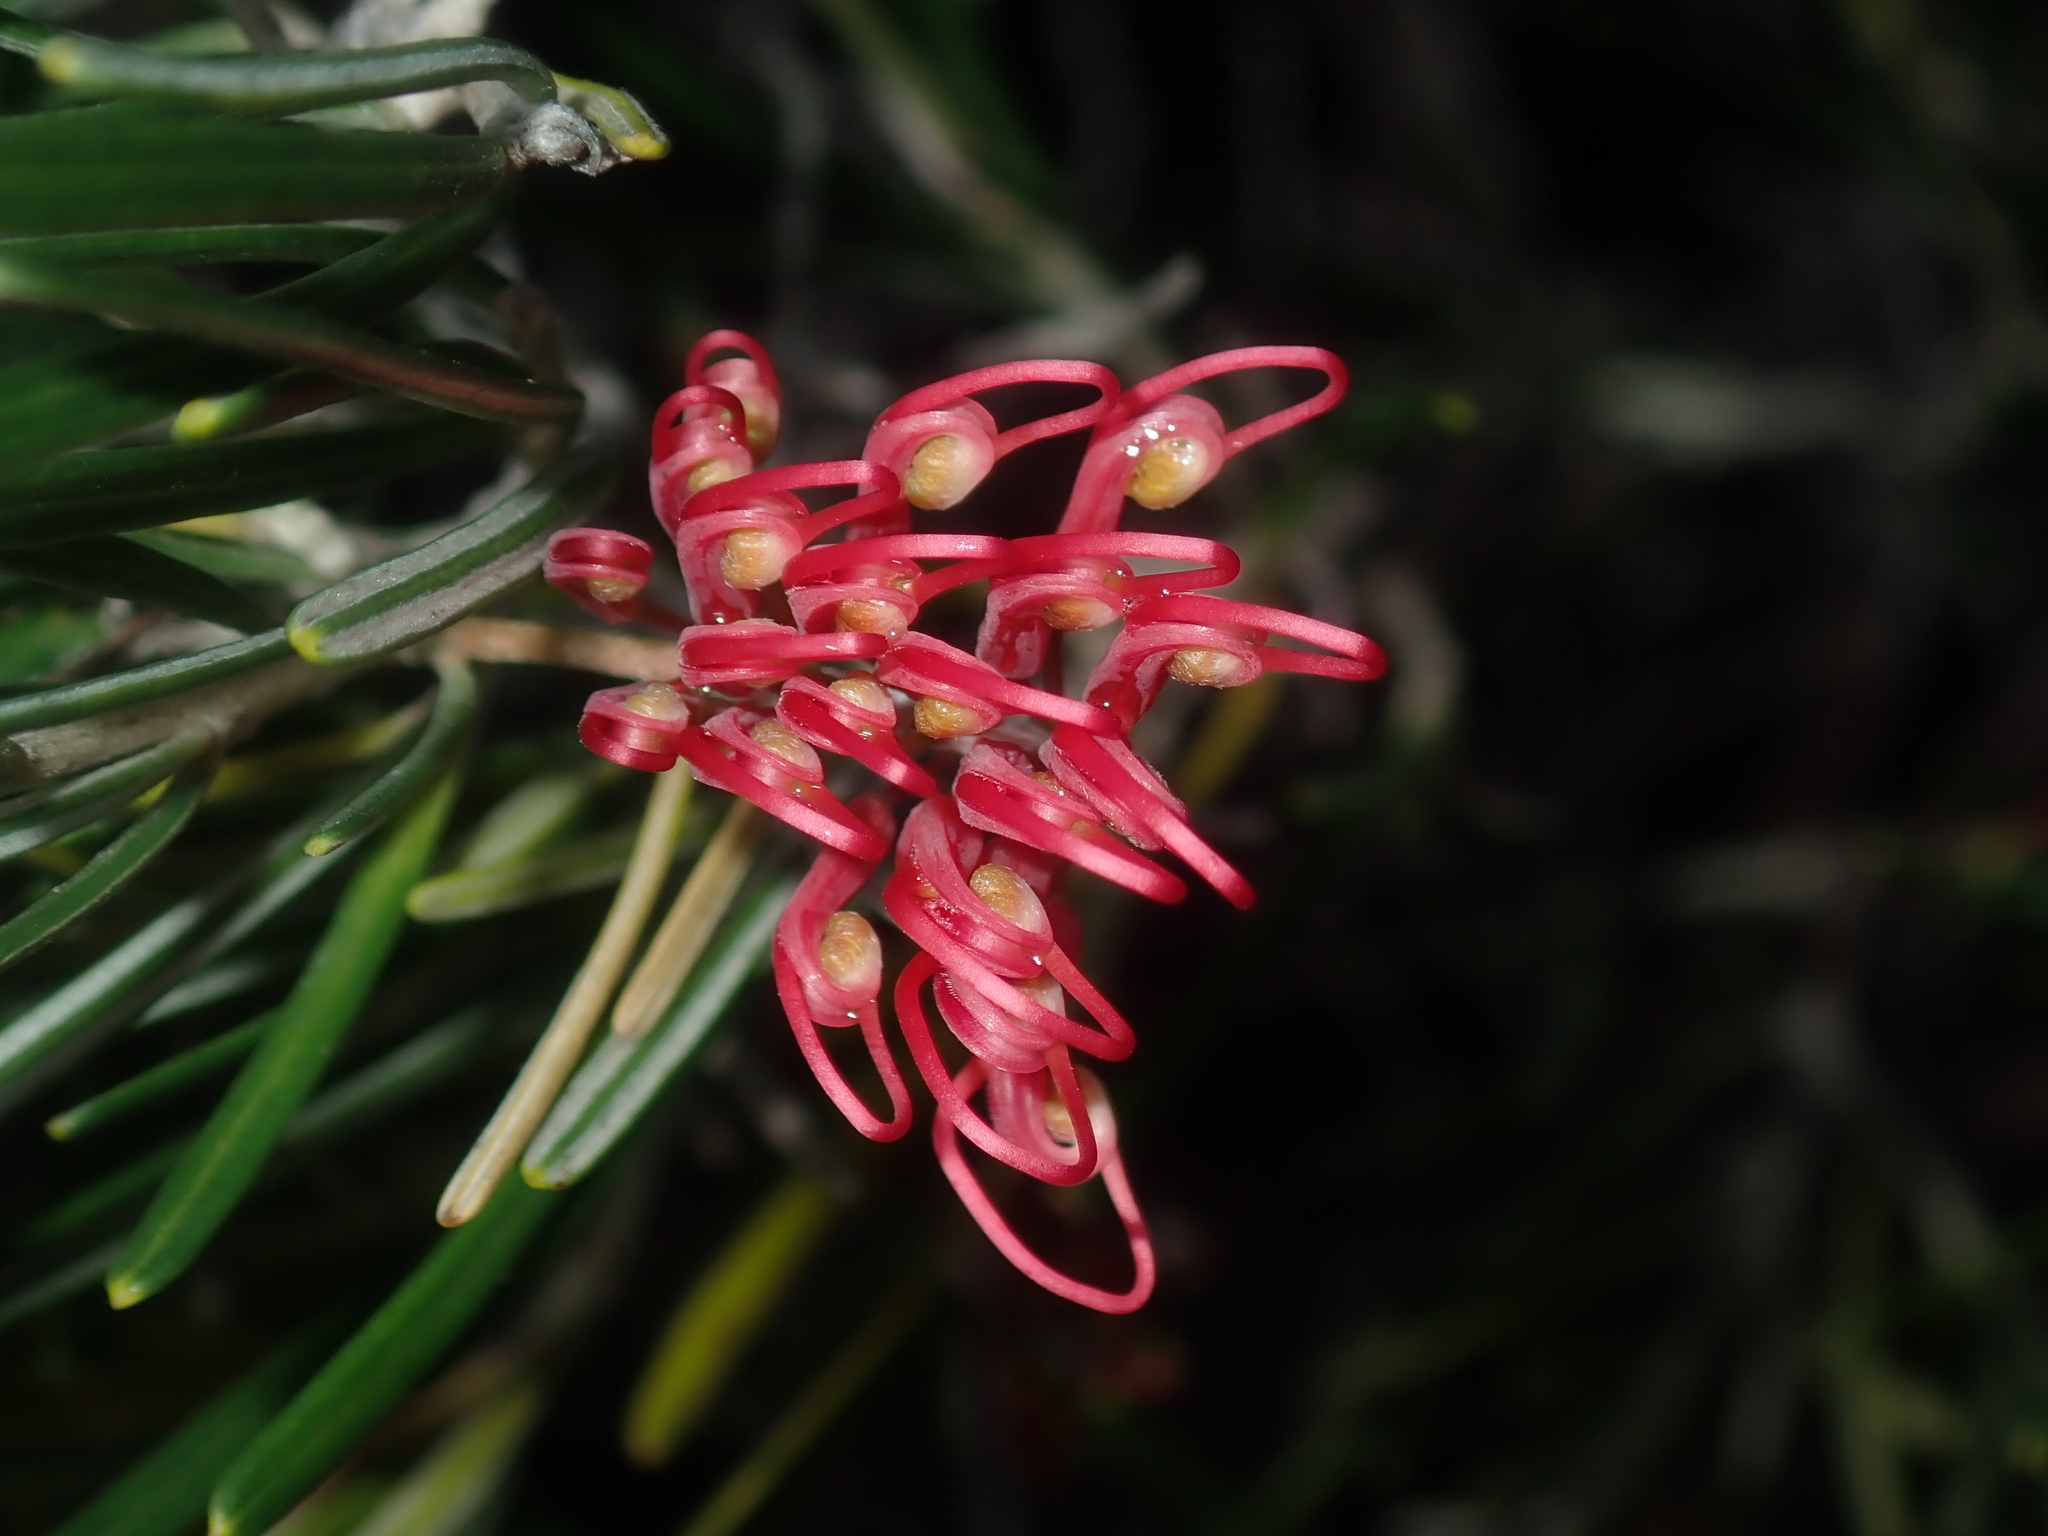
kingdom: Plantae
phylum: Tracheophyta
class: Magnoliopsida
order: Proteales
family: Proteaceae
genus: Grevillea
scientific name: Grevillea pinaster
